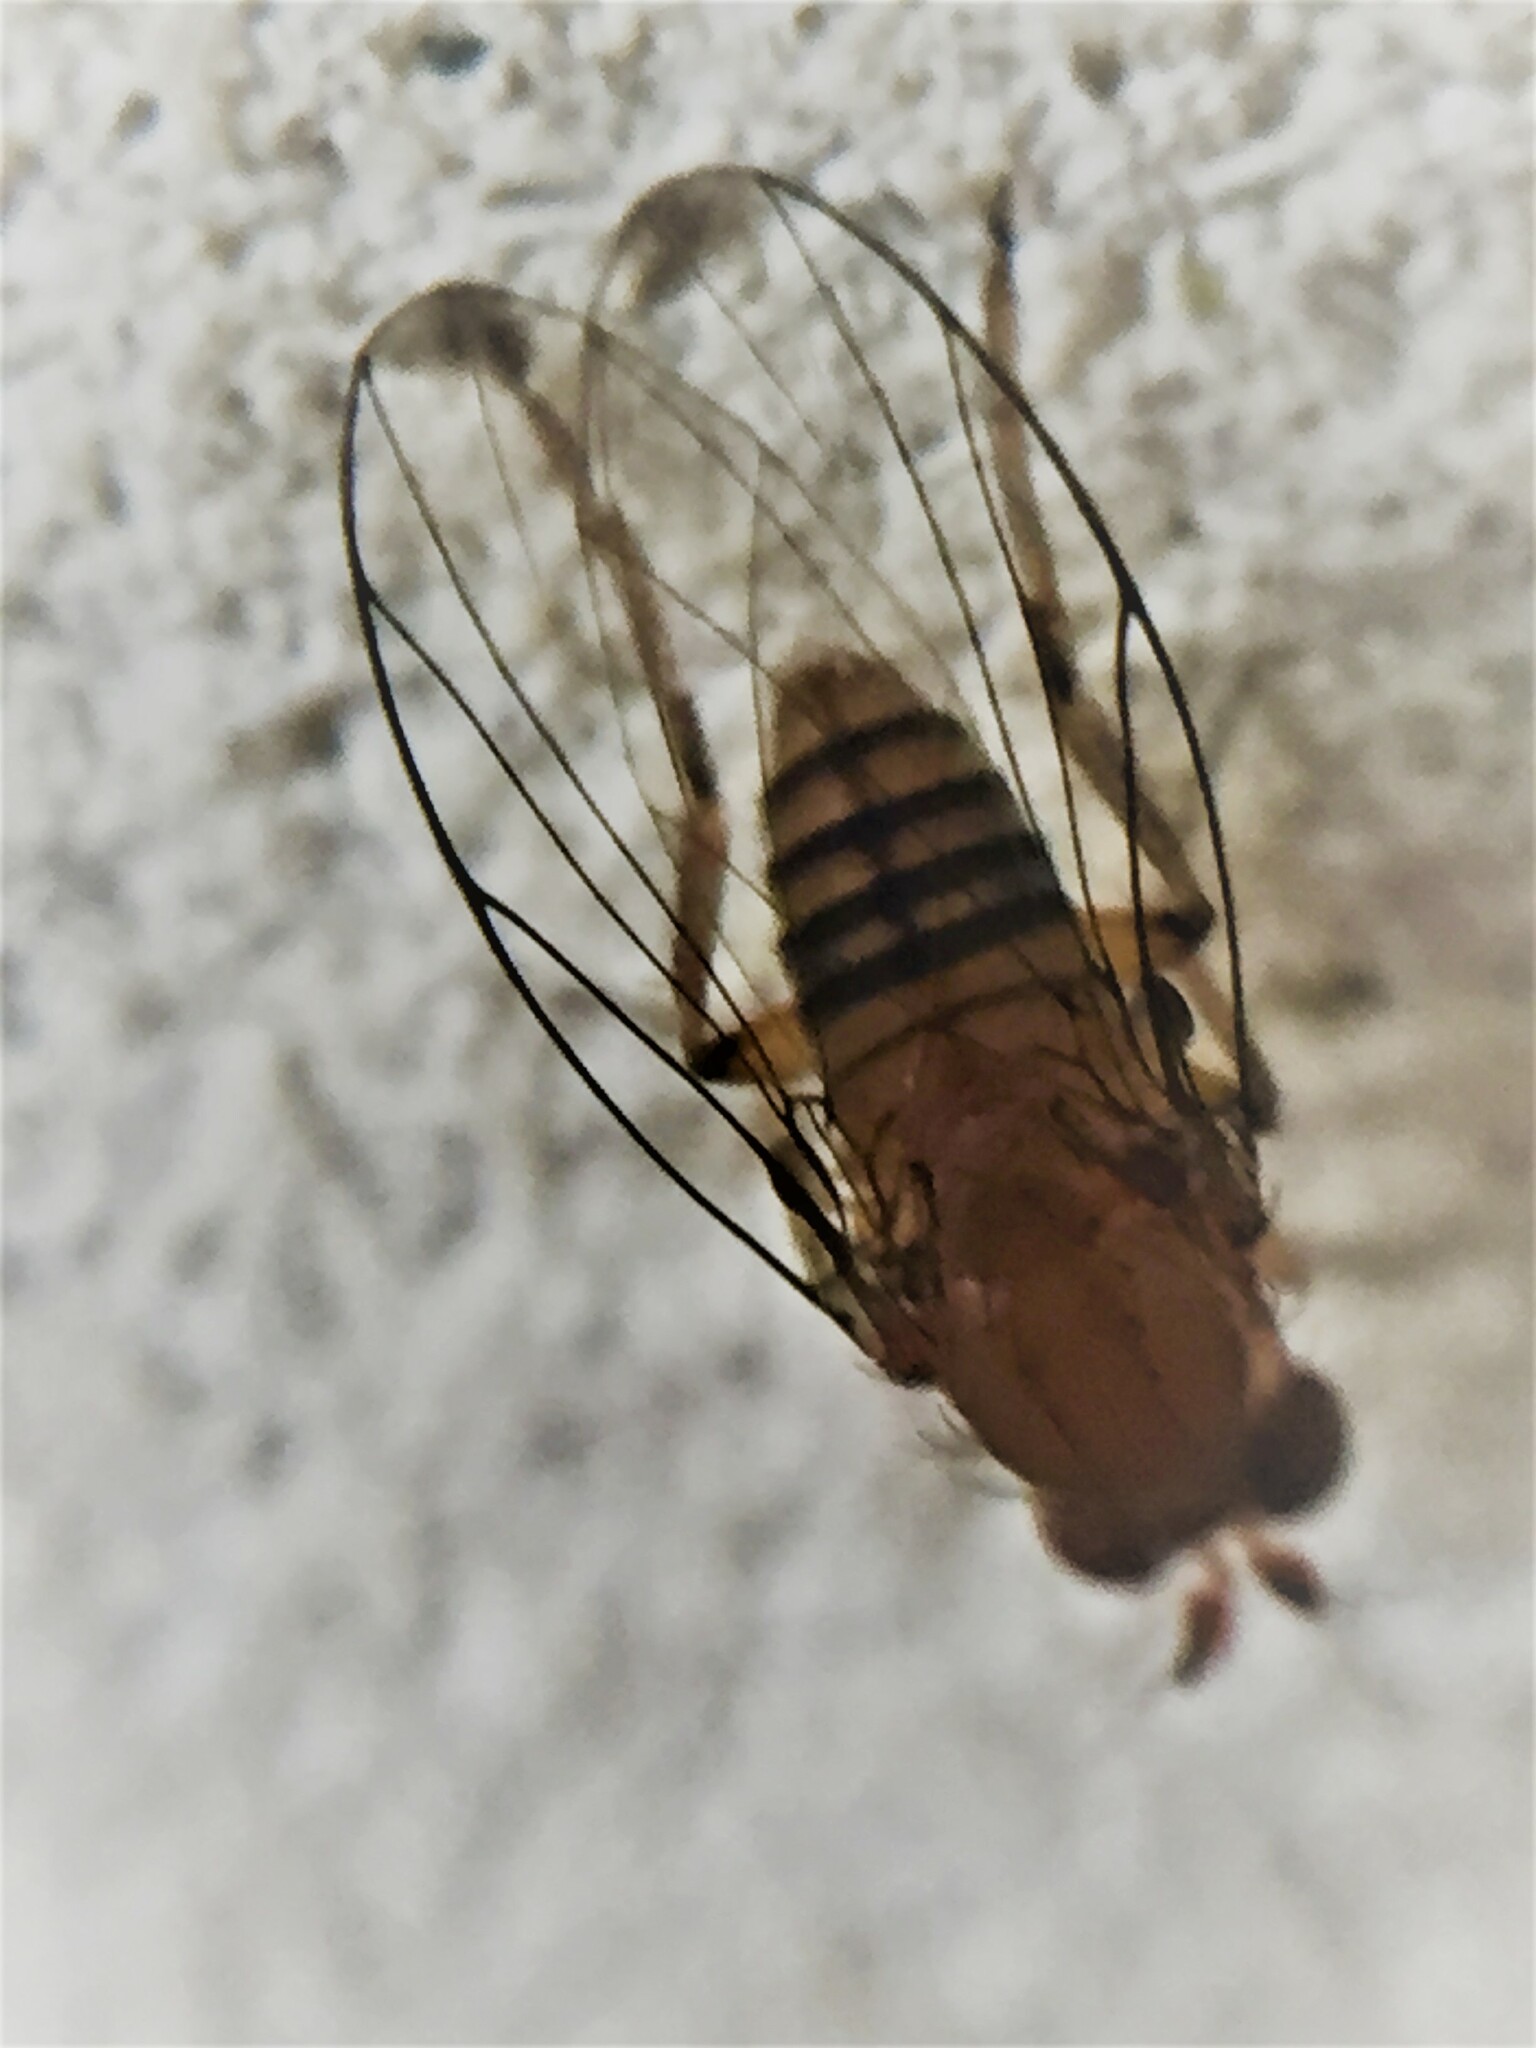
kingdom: Animalia
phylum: Arthropoda
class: Insecta
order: Diptera
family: Phoridae
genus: Sciadocera
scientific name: Sciadocera rufomaculata
